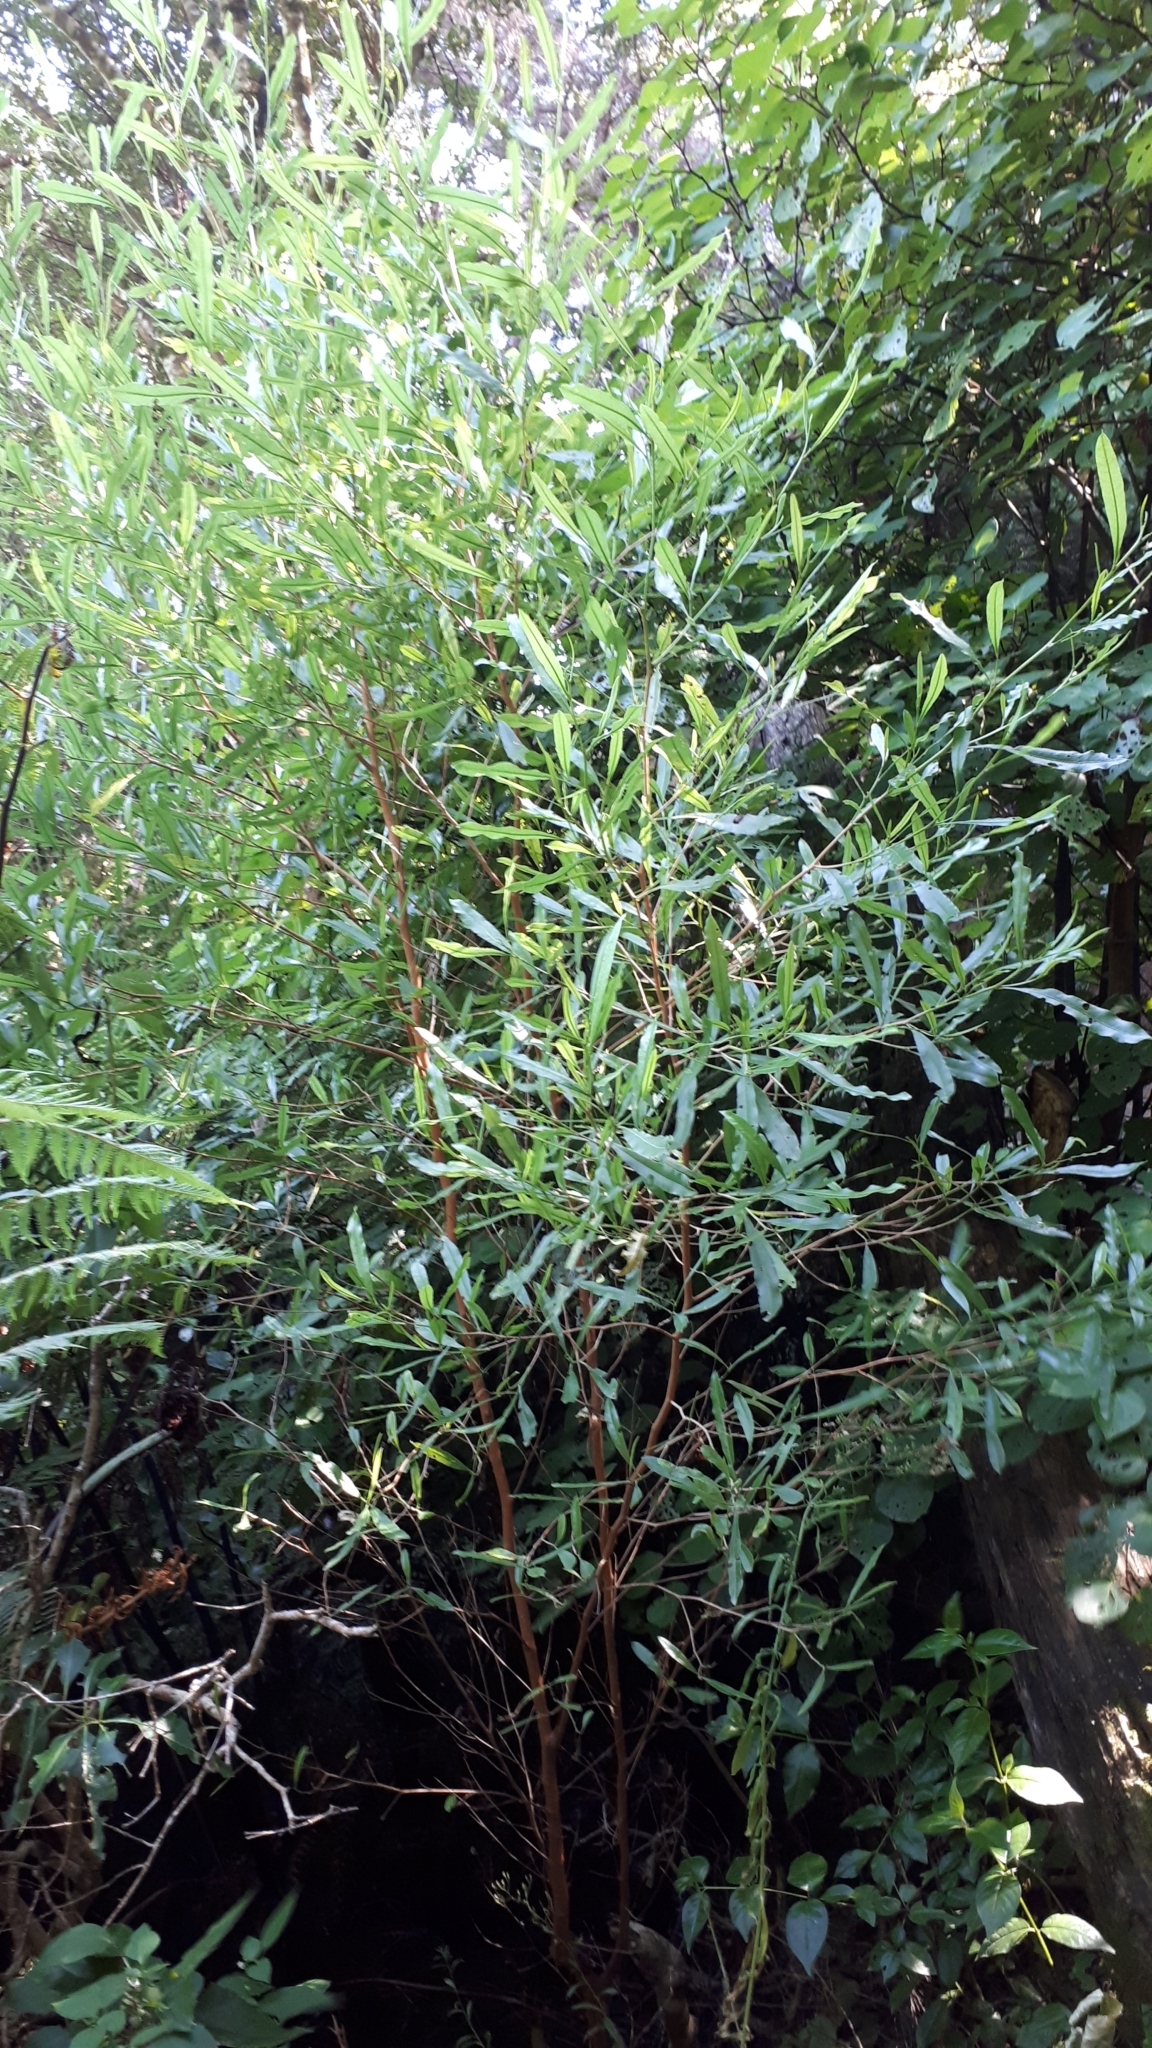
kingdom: Plantae
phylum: Tracheophyta
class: Magnoliopsida
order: Sapindales
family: Sapindaceae
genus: Dodonaea
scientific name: Dodonaea viscosa
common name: Hopbush
